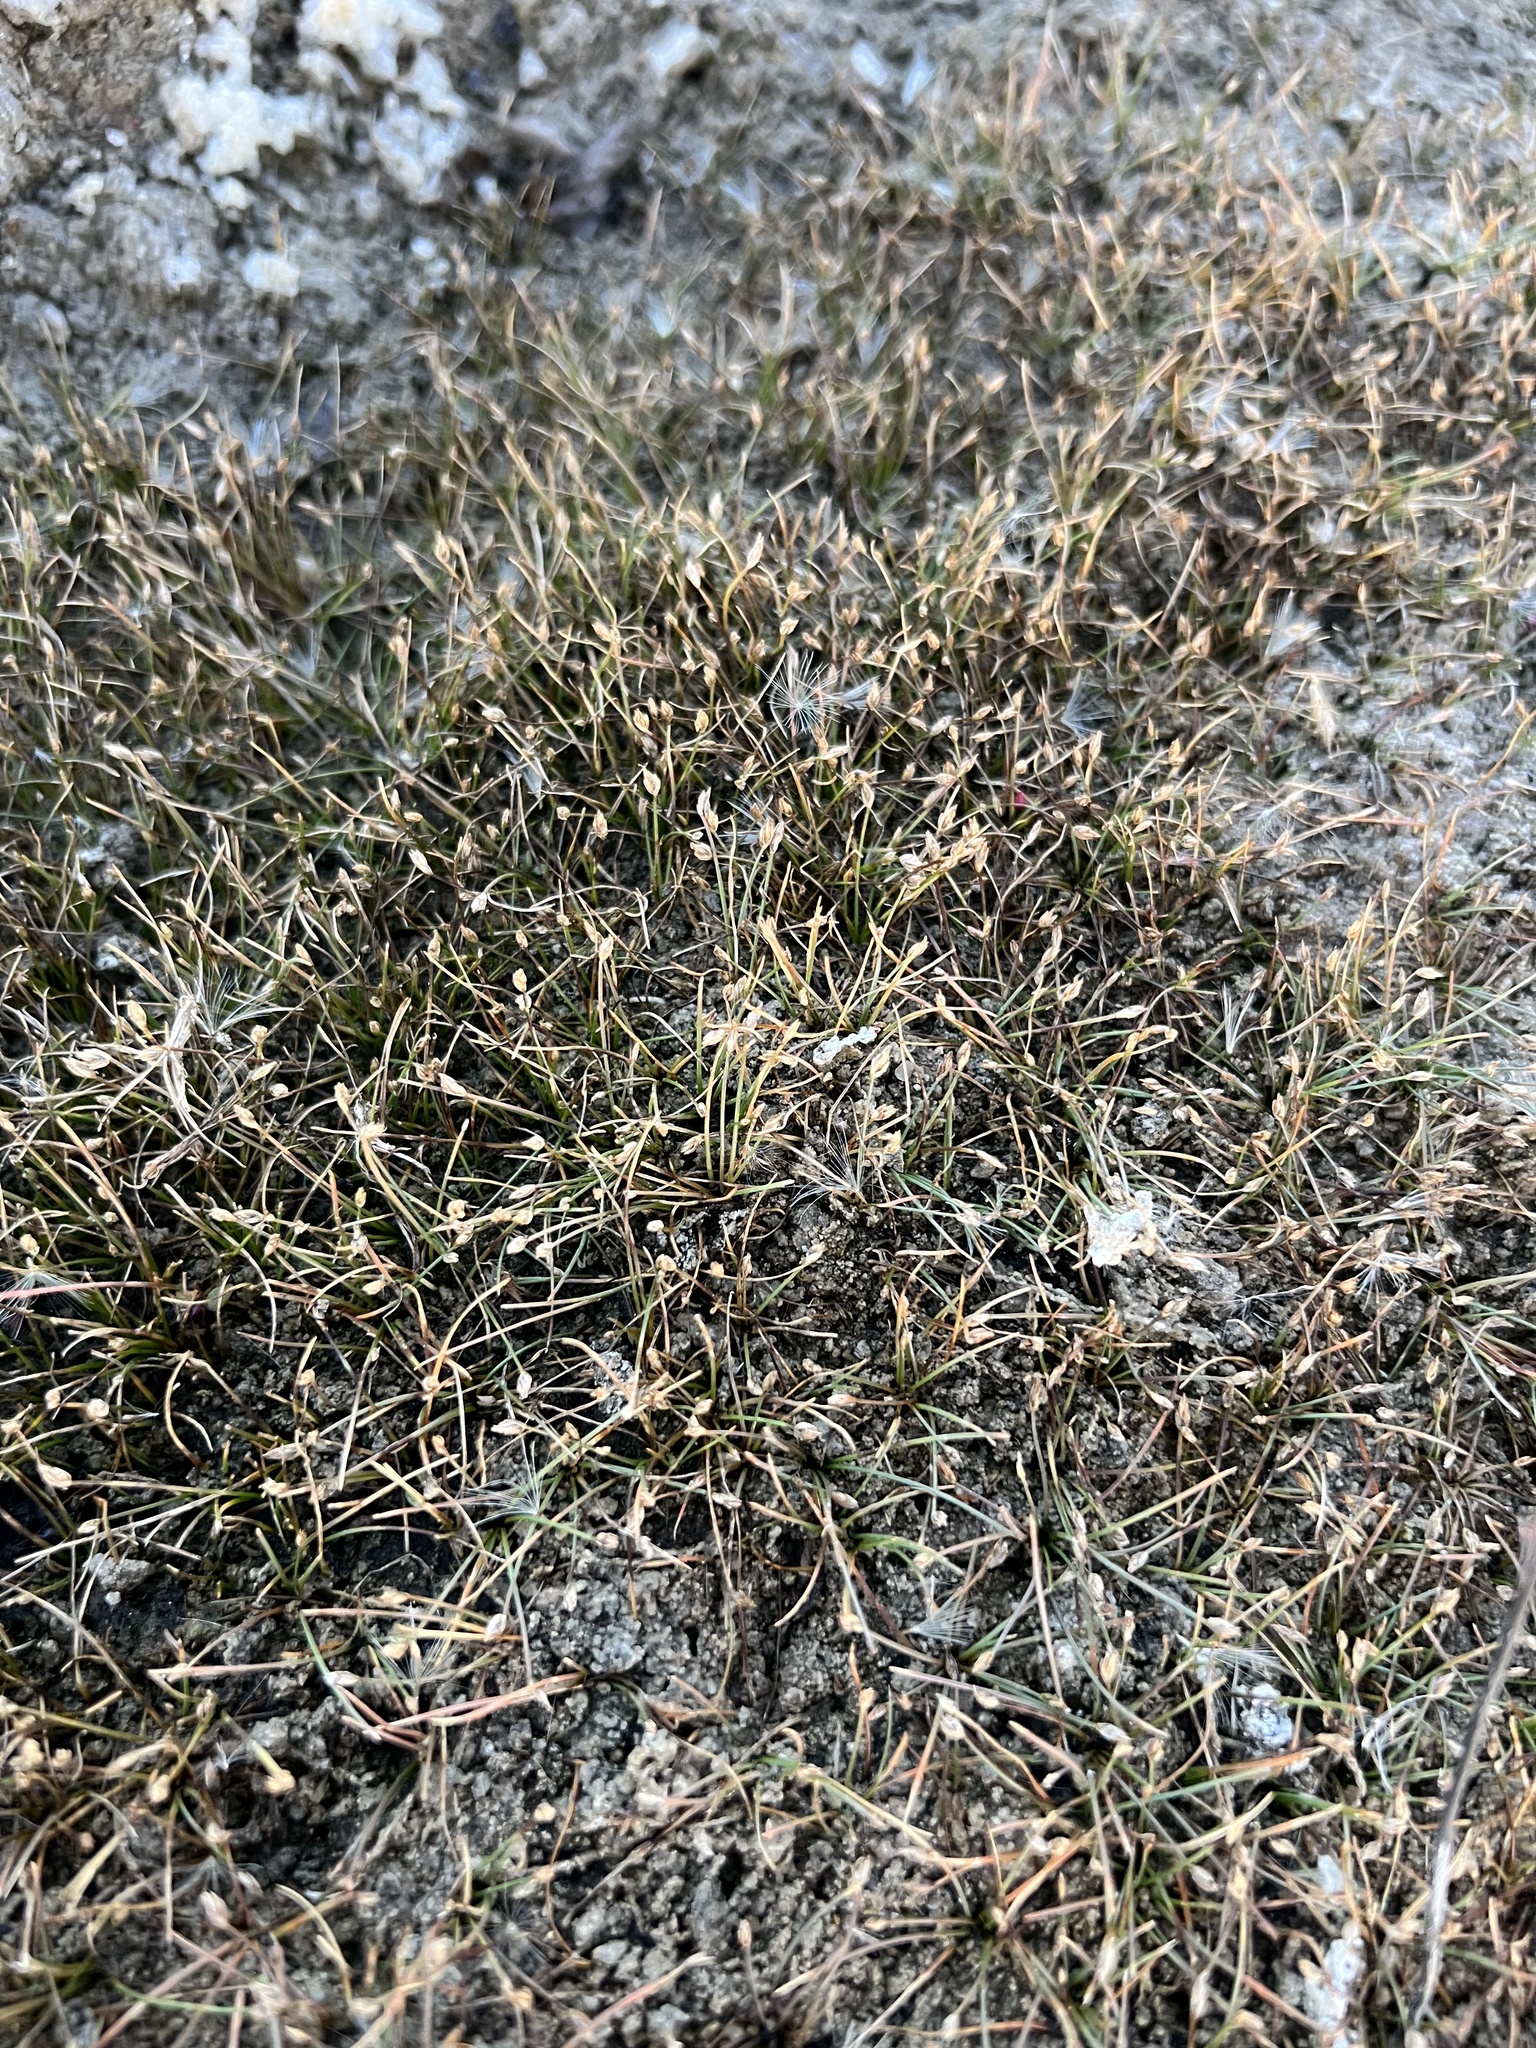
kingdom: Plantae
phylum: Tracheophyta
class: Magnoliopsida
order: Caryophyllales
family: Caryophyllaceae
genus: Spergularia
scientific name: Spergularia marina
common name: Lesser sea-spurrey
